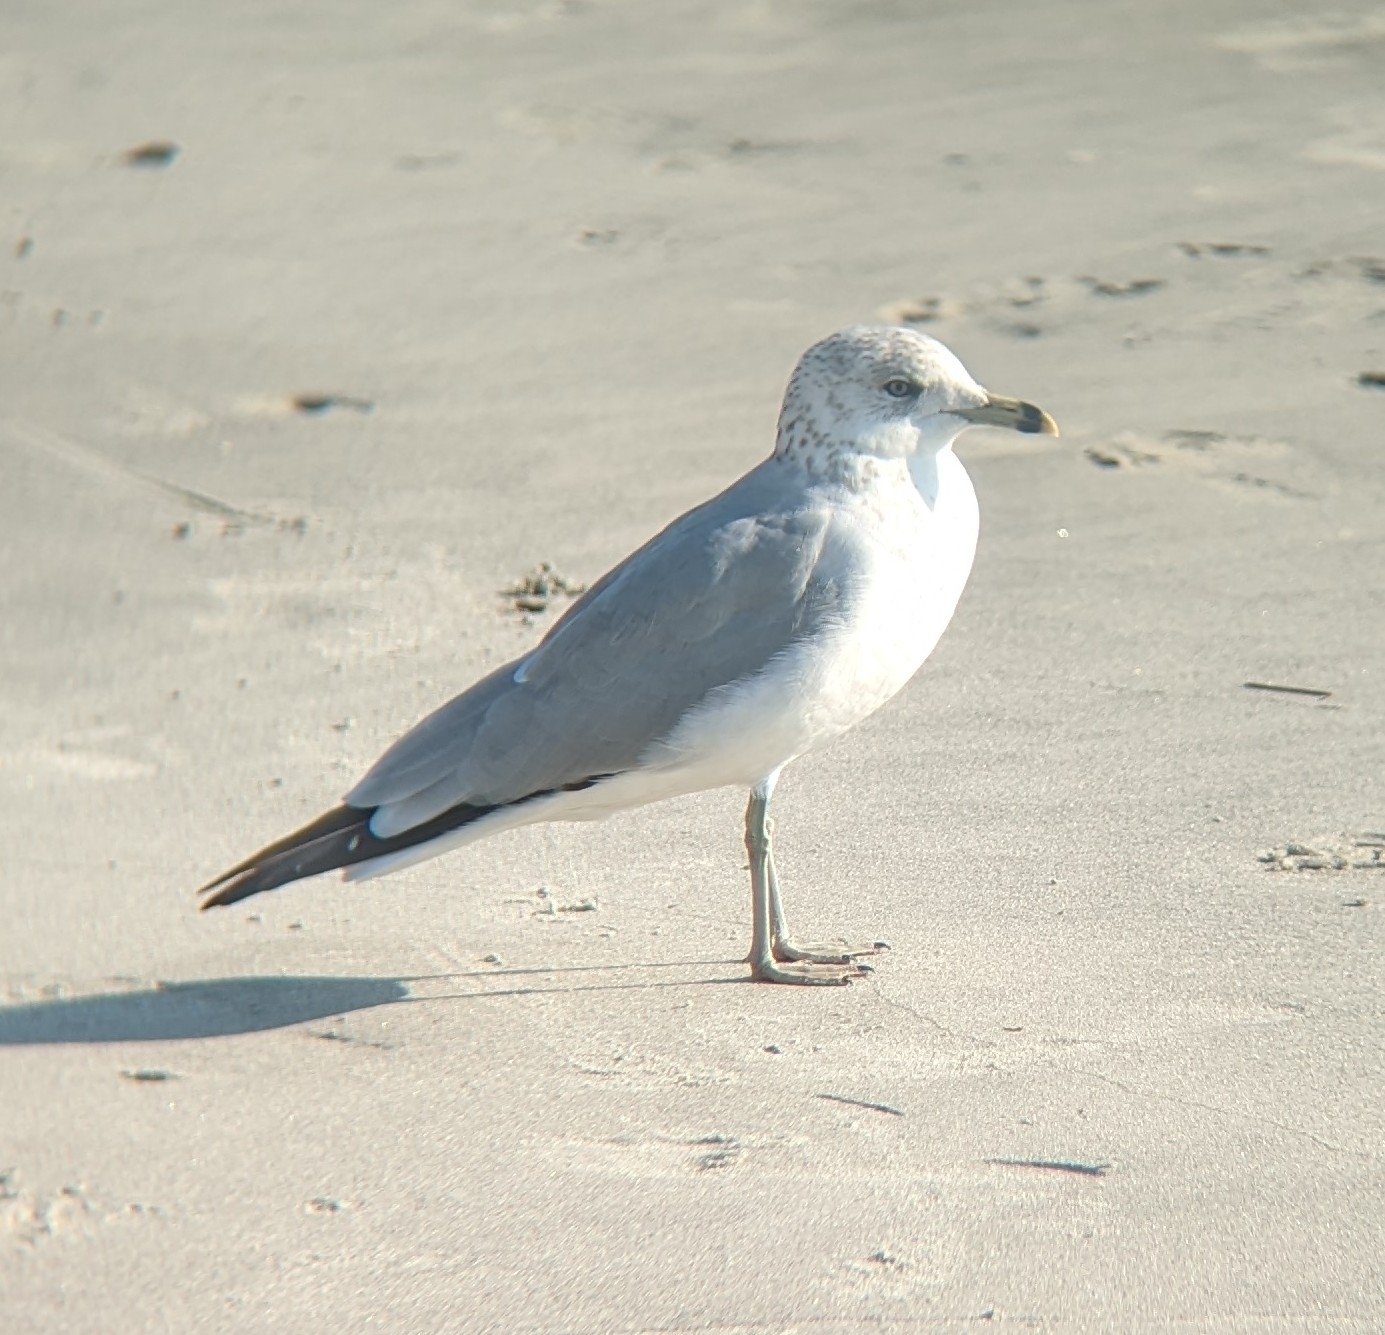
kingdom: Animalia
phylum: Chordata
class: Aves
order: Charadriiformes
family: Laridae
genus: Larus
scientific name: Larus delawarensis
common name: Ring-billed gull
